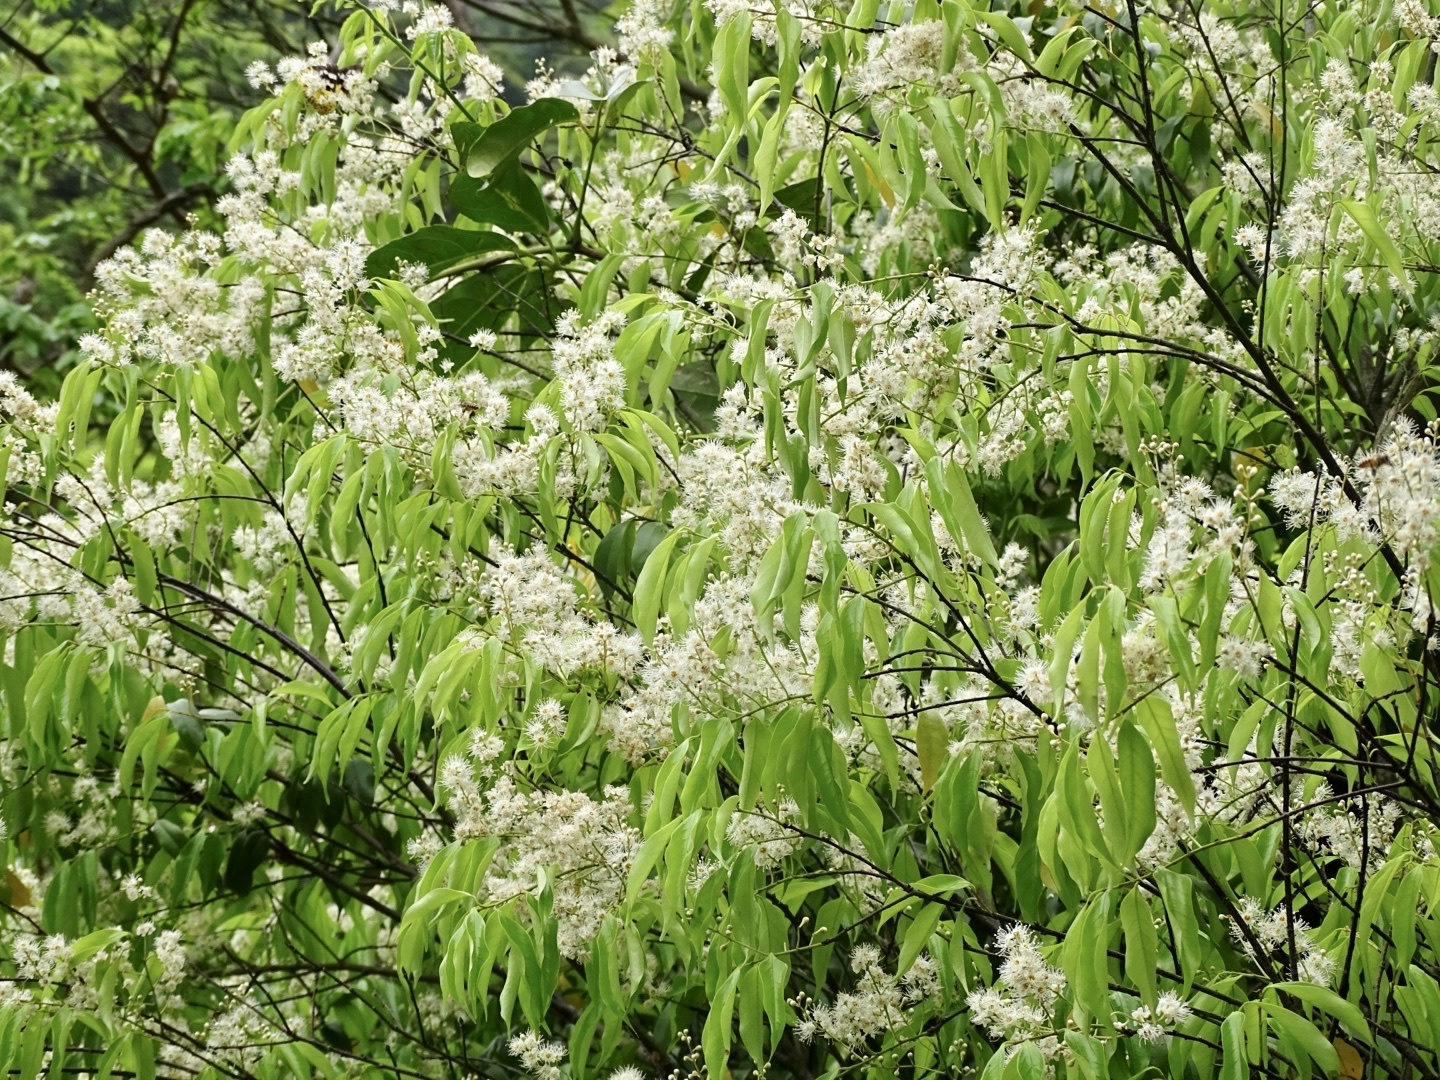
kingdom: Plantae
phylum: Tracheophyta
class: Magnoliopsida
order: Rosales
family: Rosaceae
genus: Prunus
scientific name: Prunus phaeosticta
